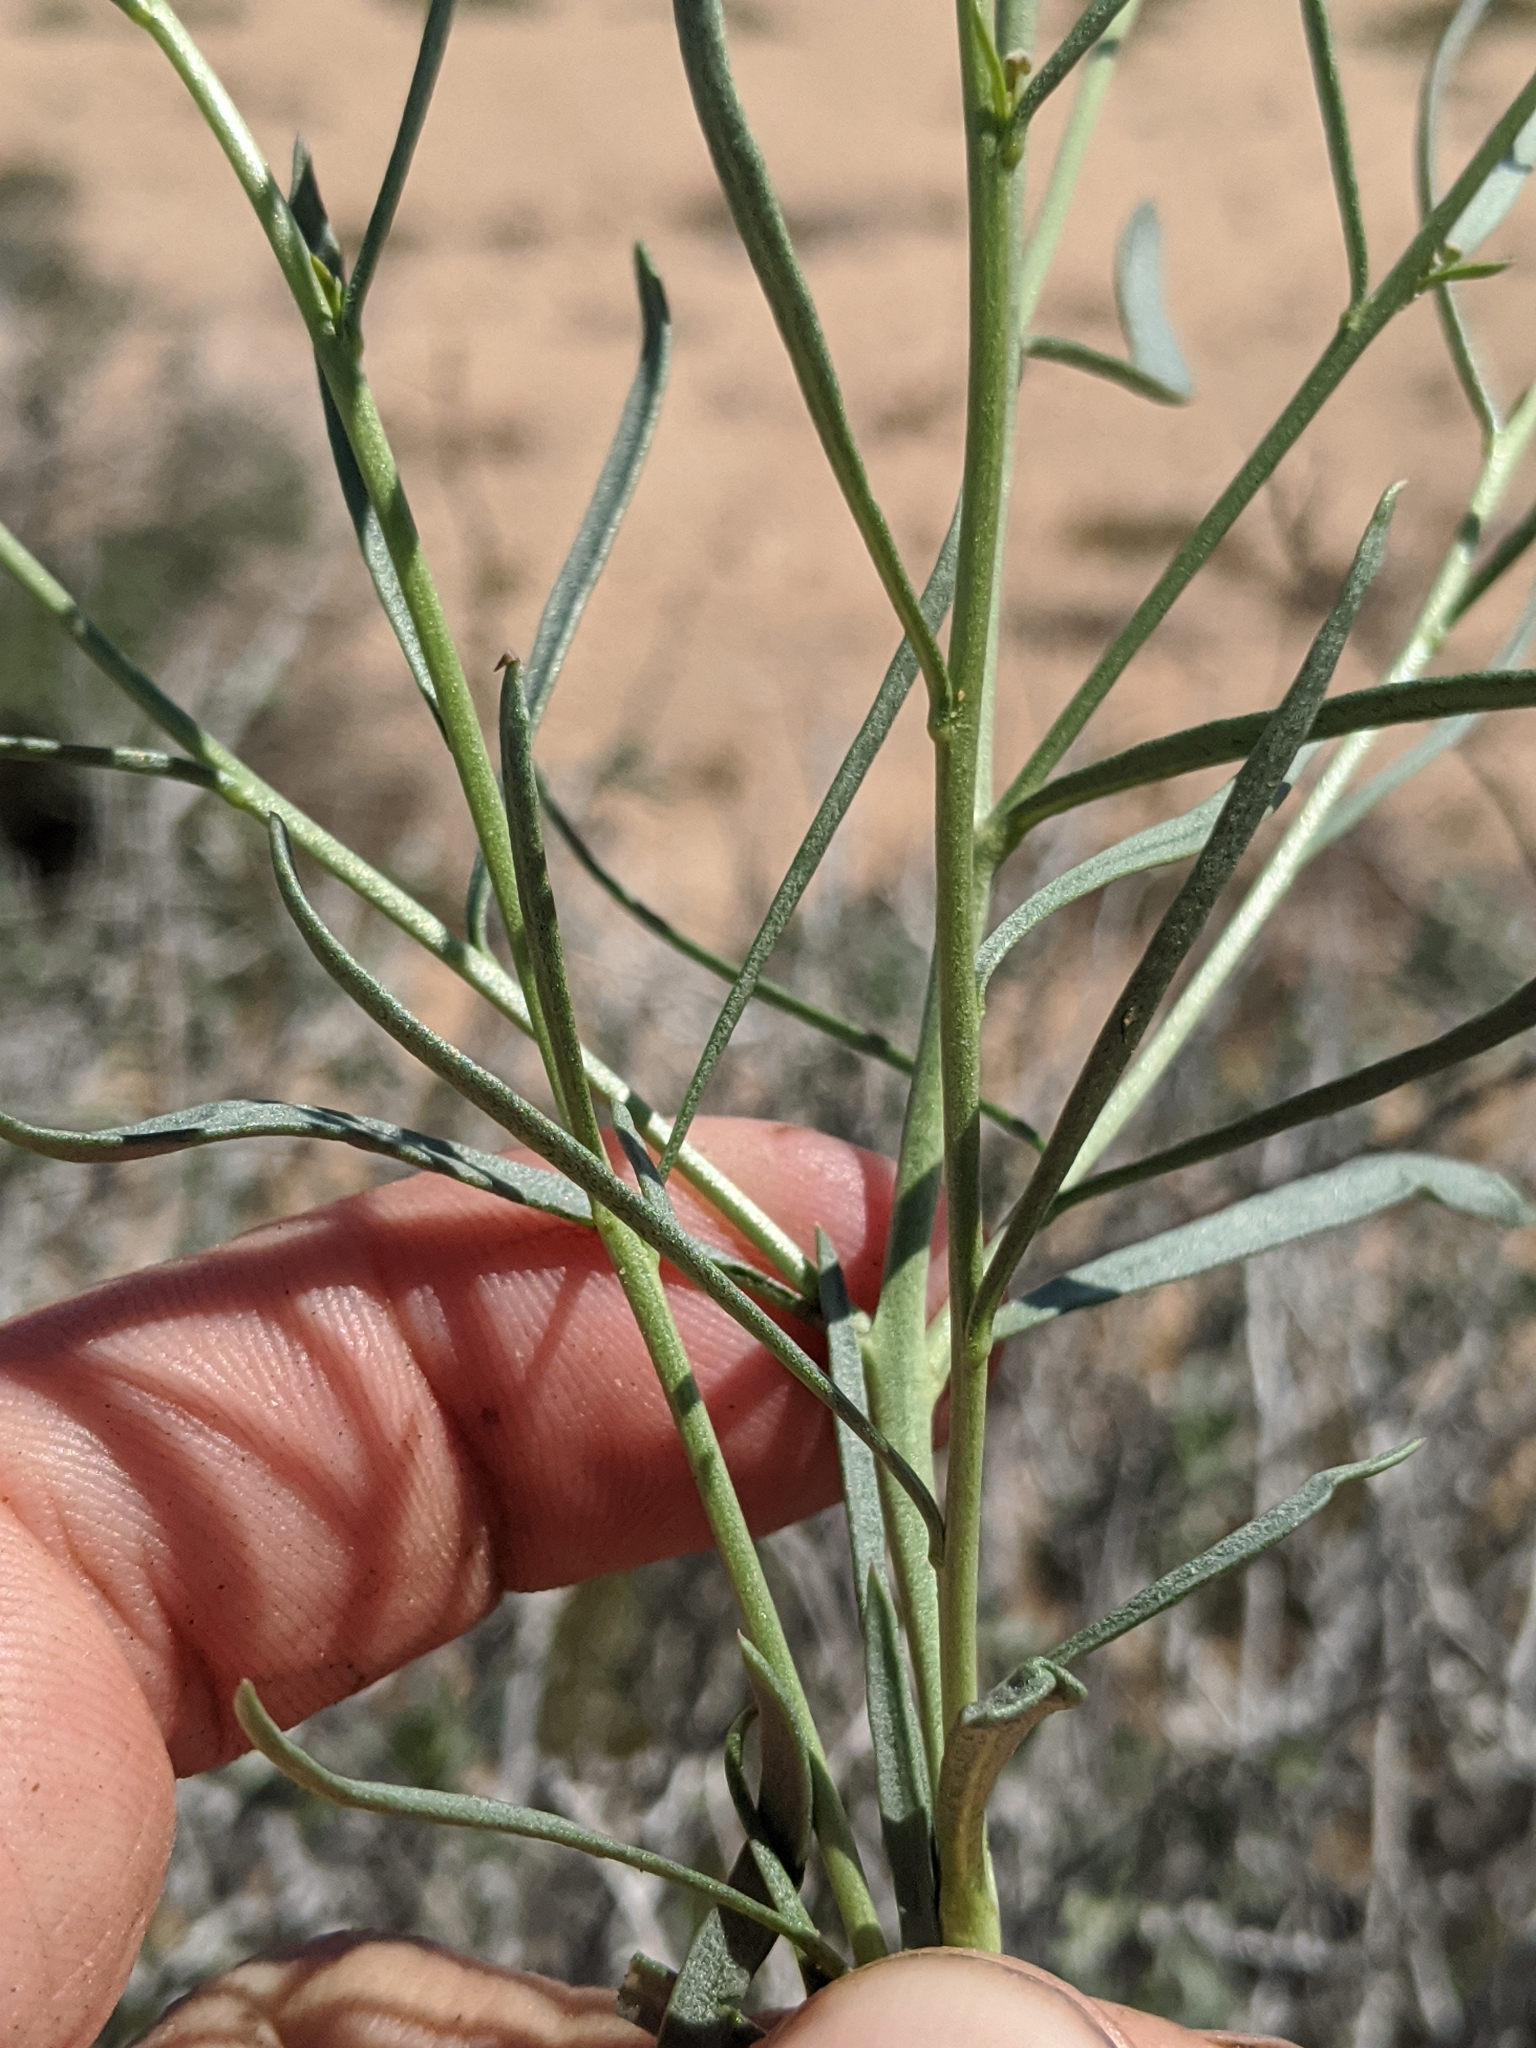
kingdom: Plantae
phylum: Tracheophyta
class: Magnoliopsida
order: Brassicales
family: Brassicaceae
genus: Lepidium
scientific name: Lepidium fremontii
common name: Fremont's pepperwort
